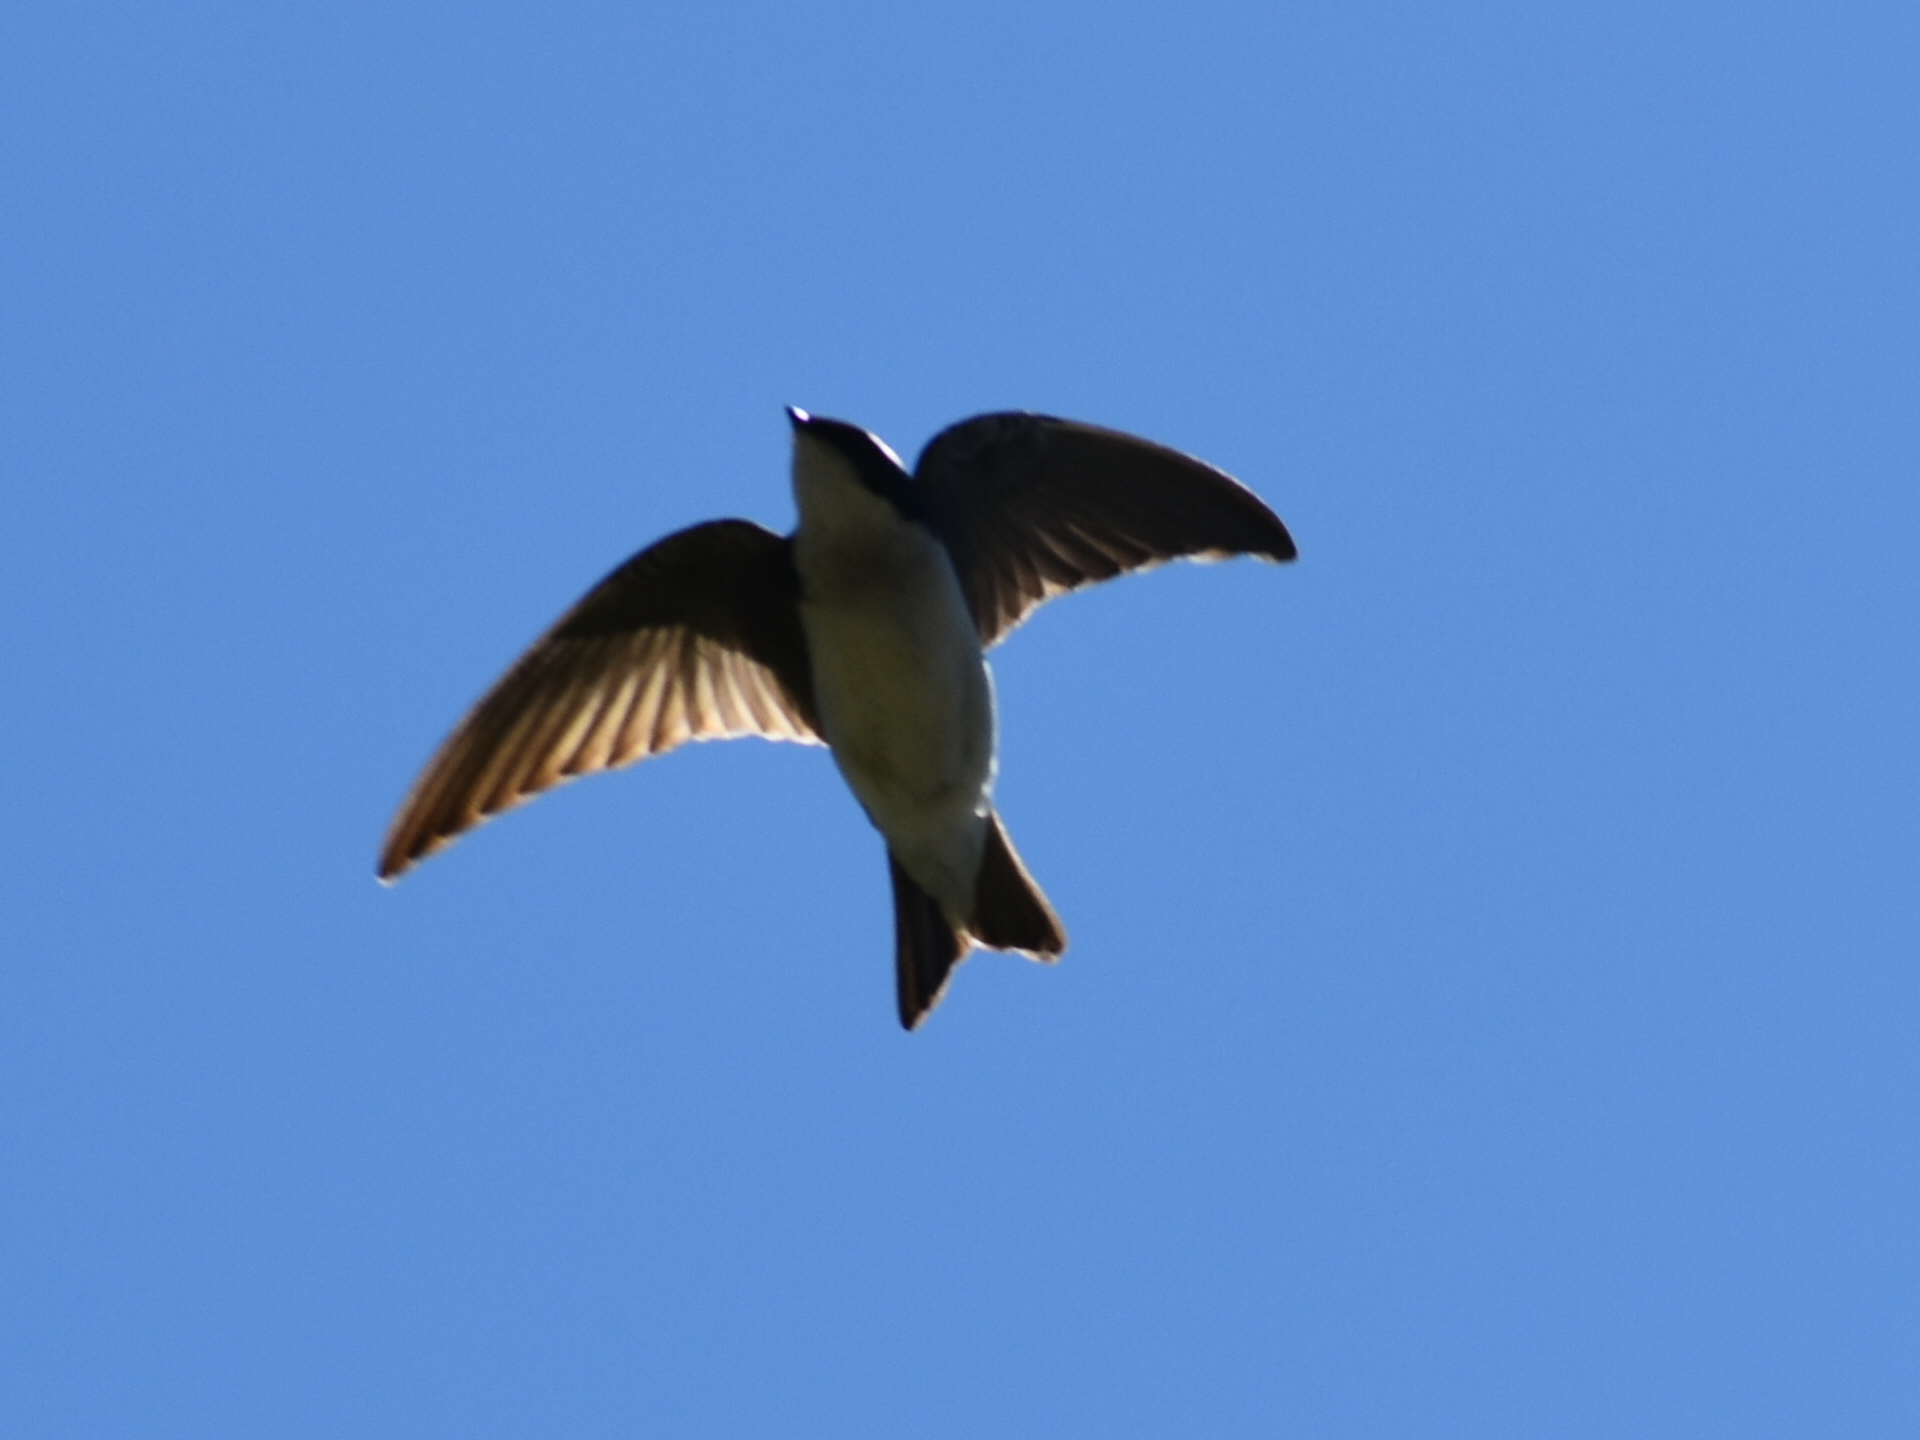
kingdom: Animalia
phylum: Chordata
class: Aves
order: Passeriformes
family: Hirundinidae
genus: Tachycineta
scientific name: Tachycineta bicolor
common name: Tree swallow
